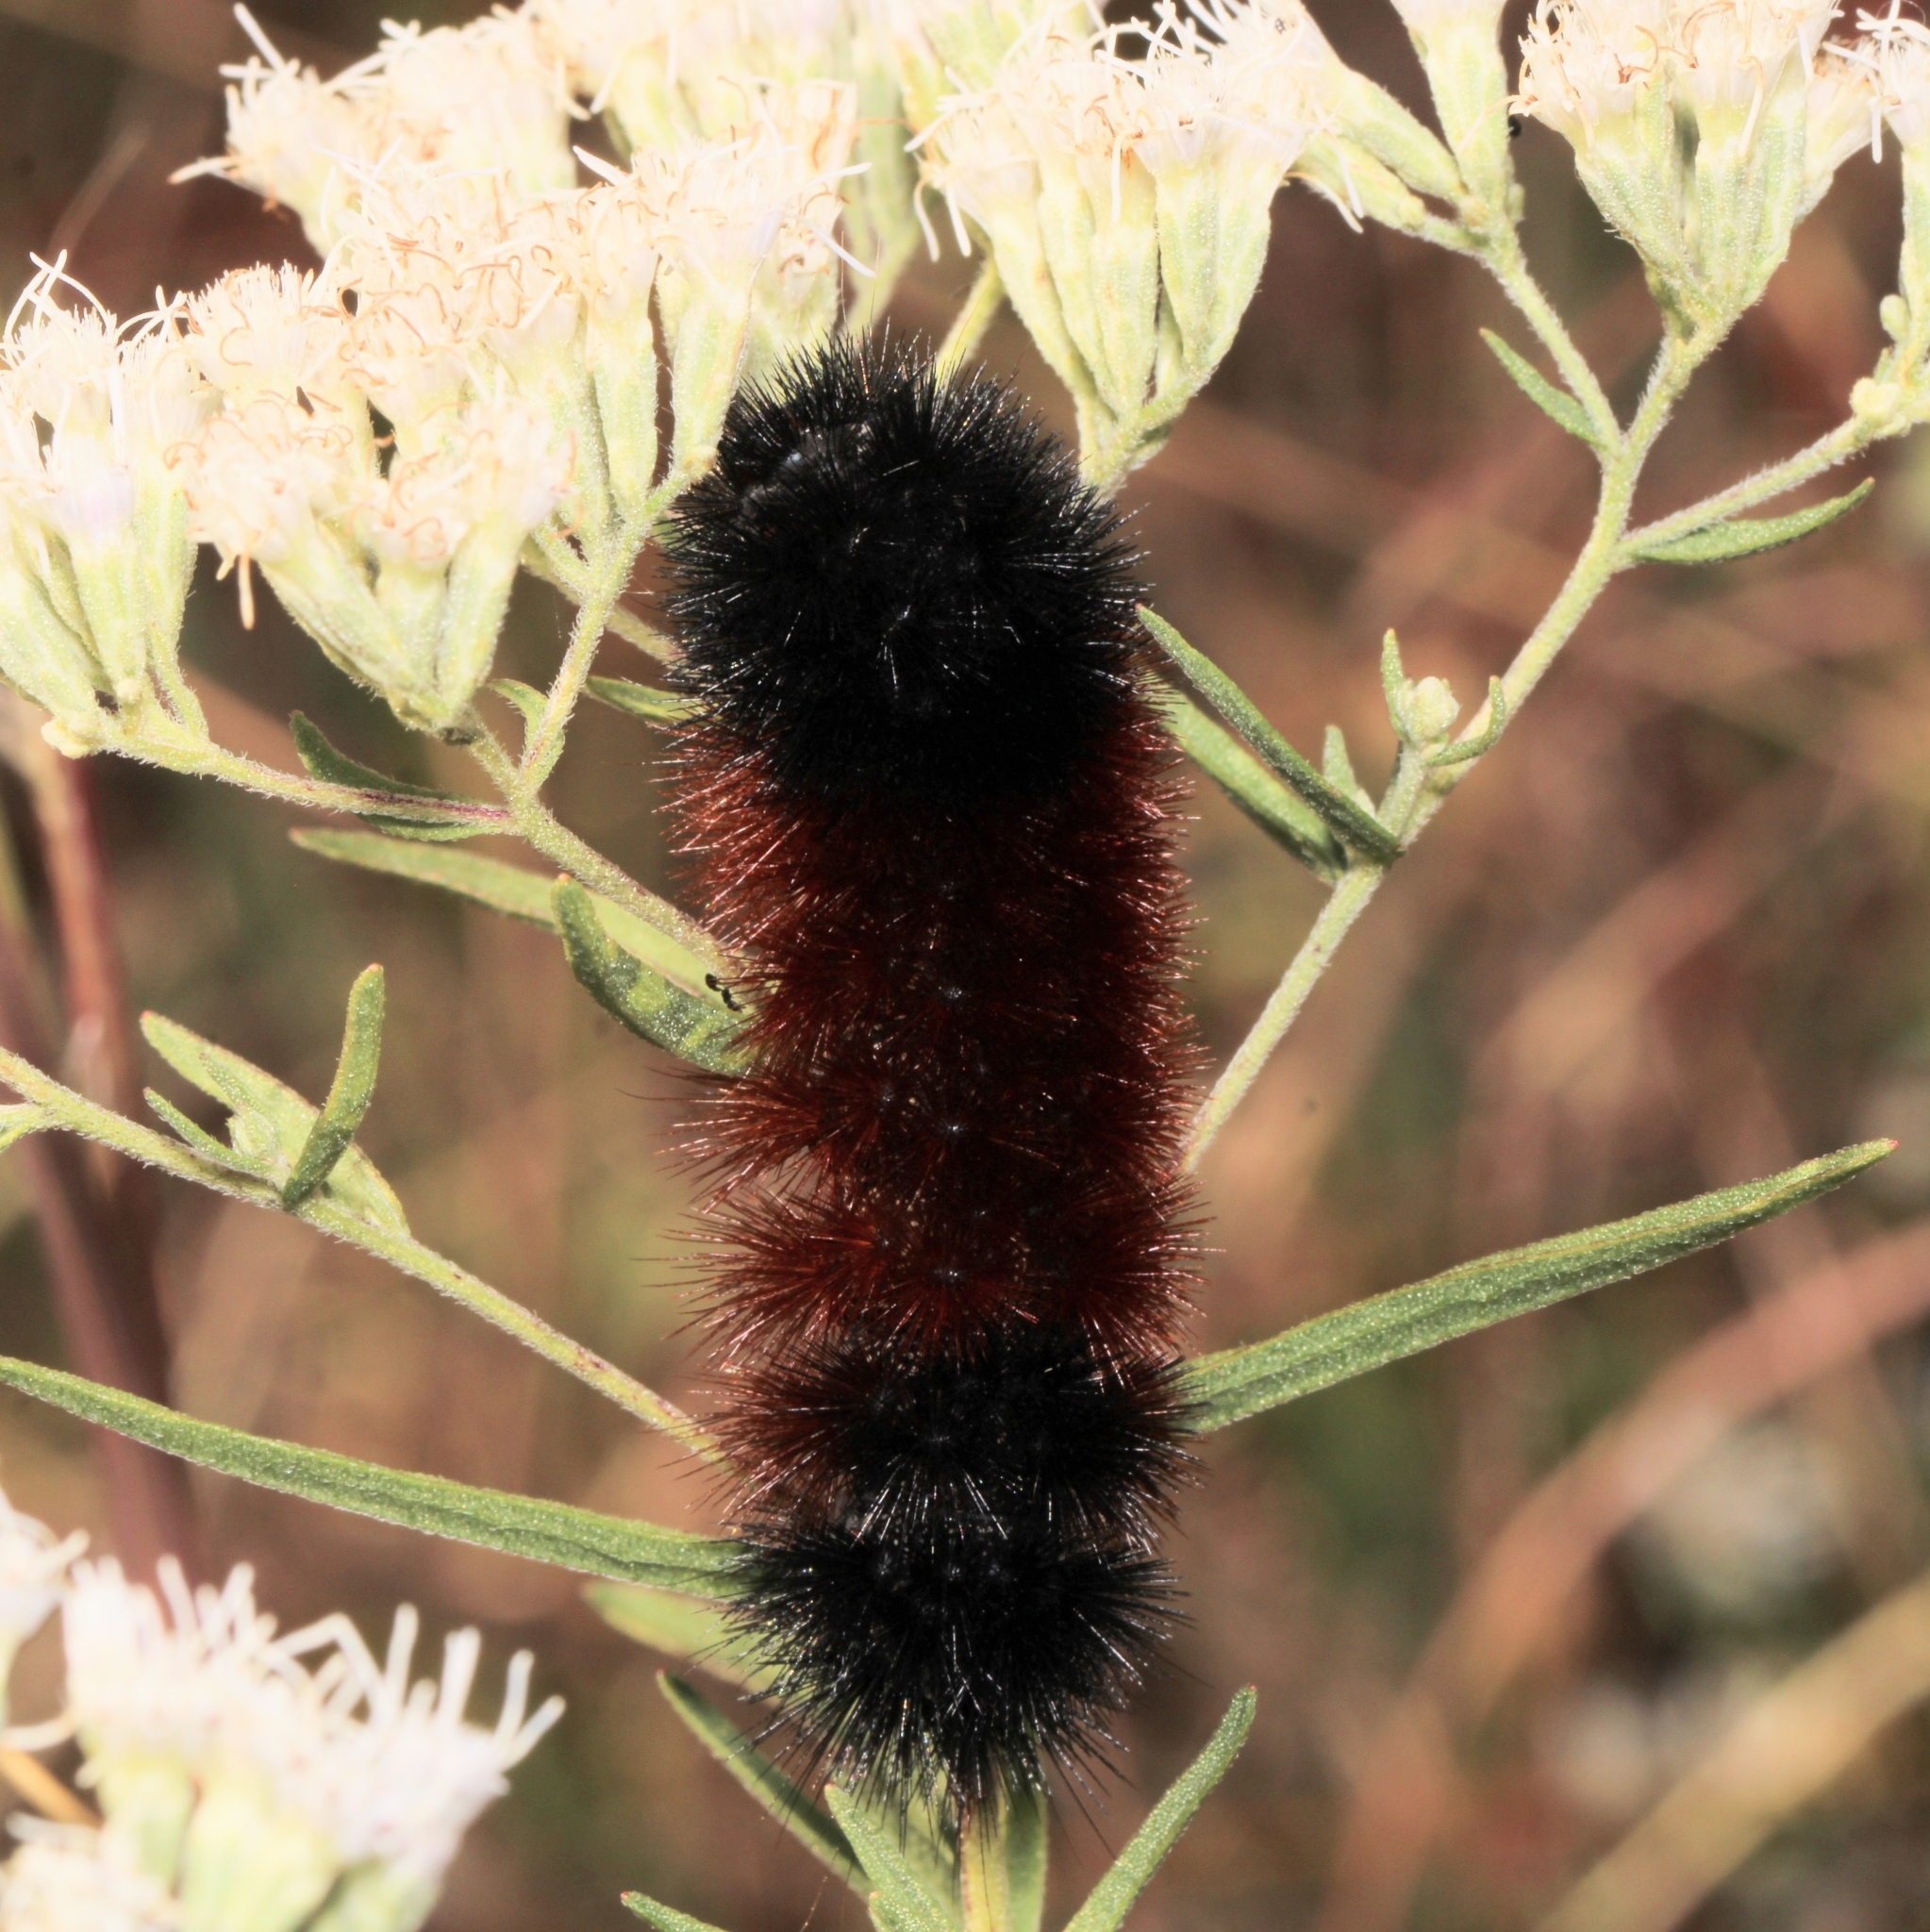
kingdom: Animalia
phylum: Arthropoda
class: Insecta
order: Lepidoptera
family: Erebidae
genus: Pyrrharctia
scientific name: Pyrrharctia isabella
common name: Isabella tiger moth
